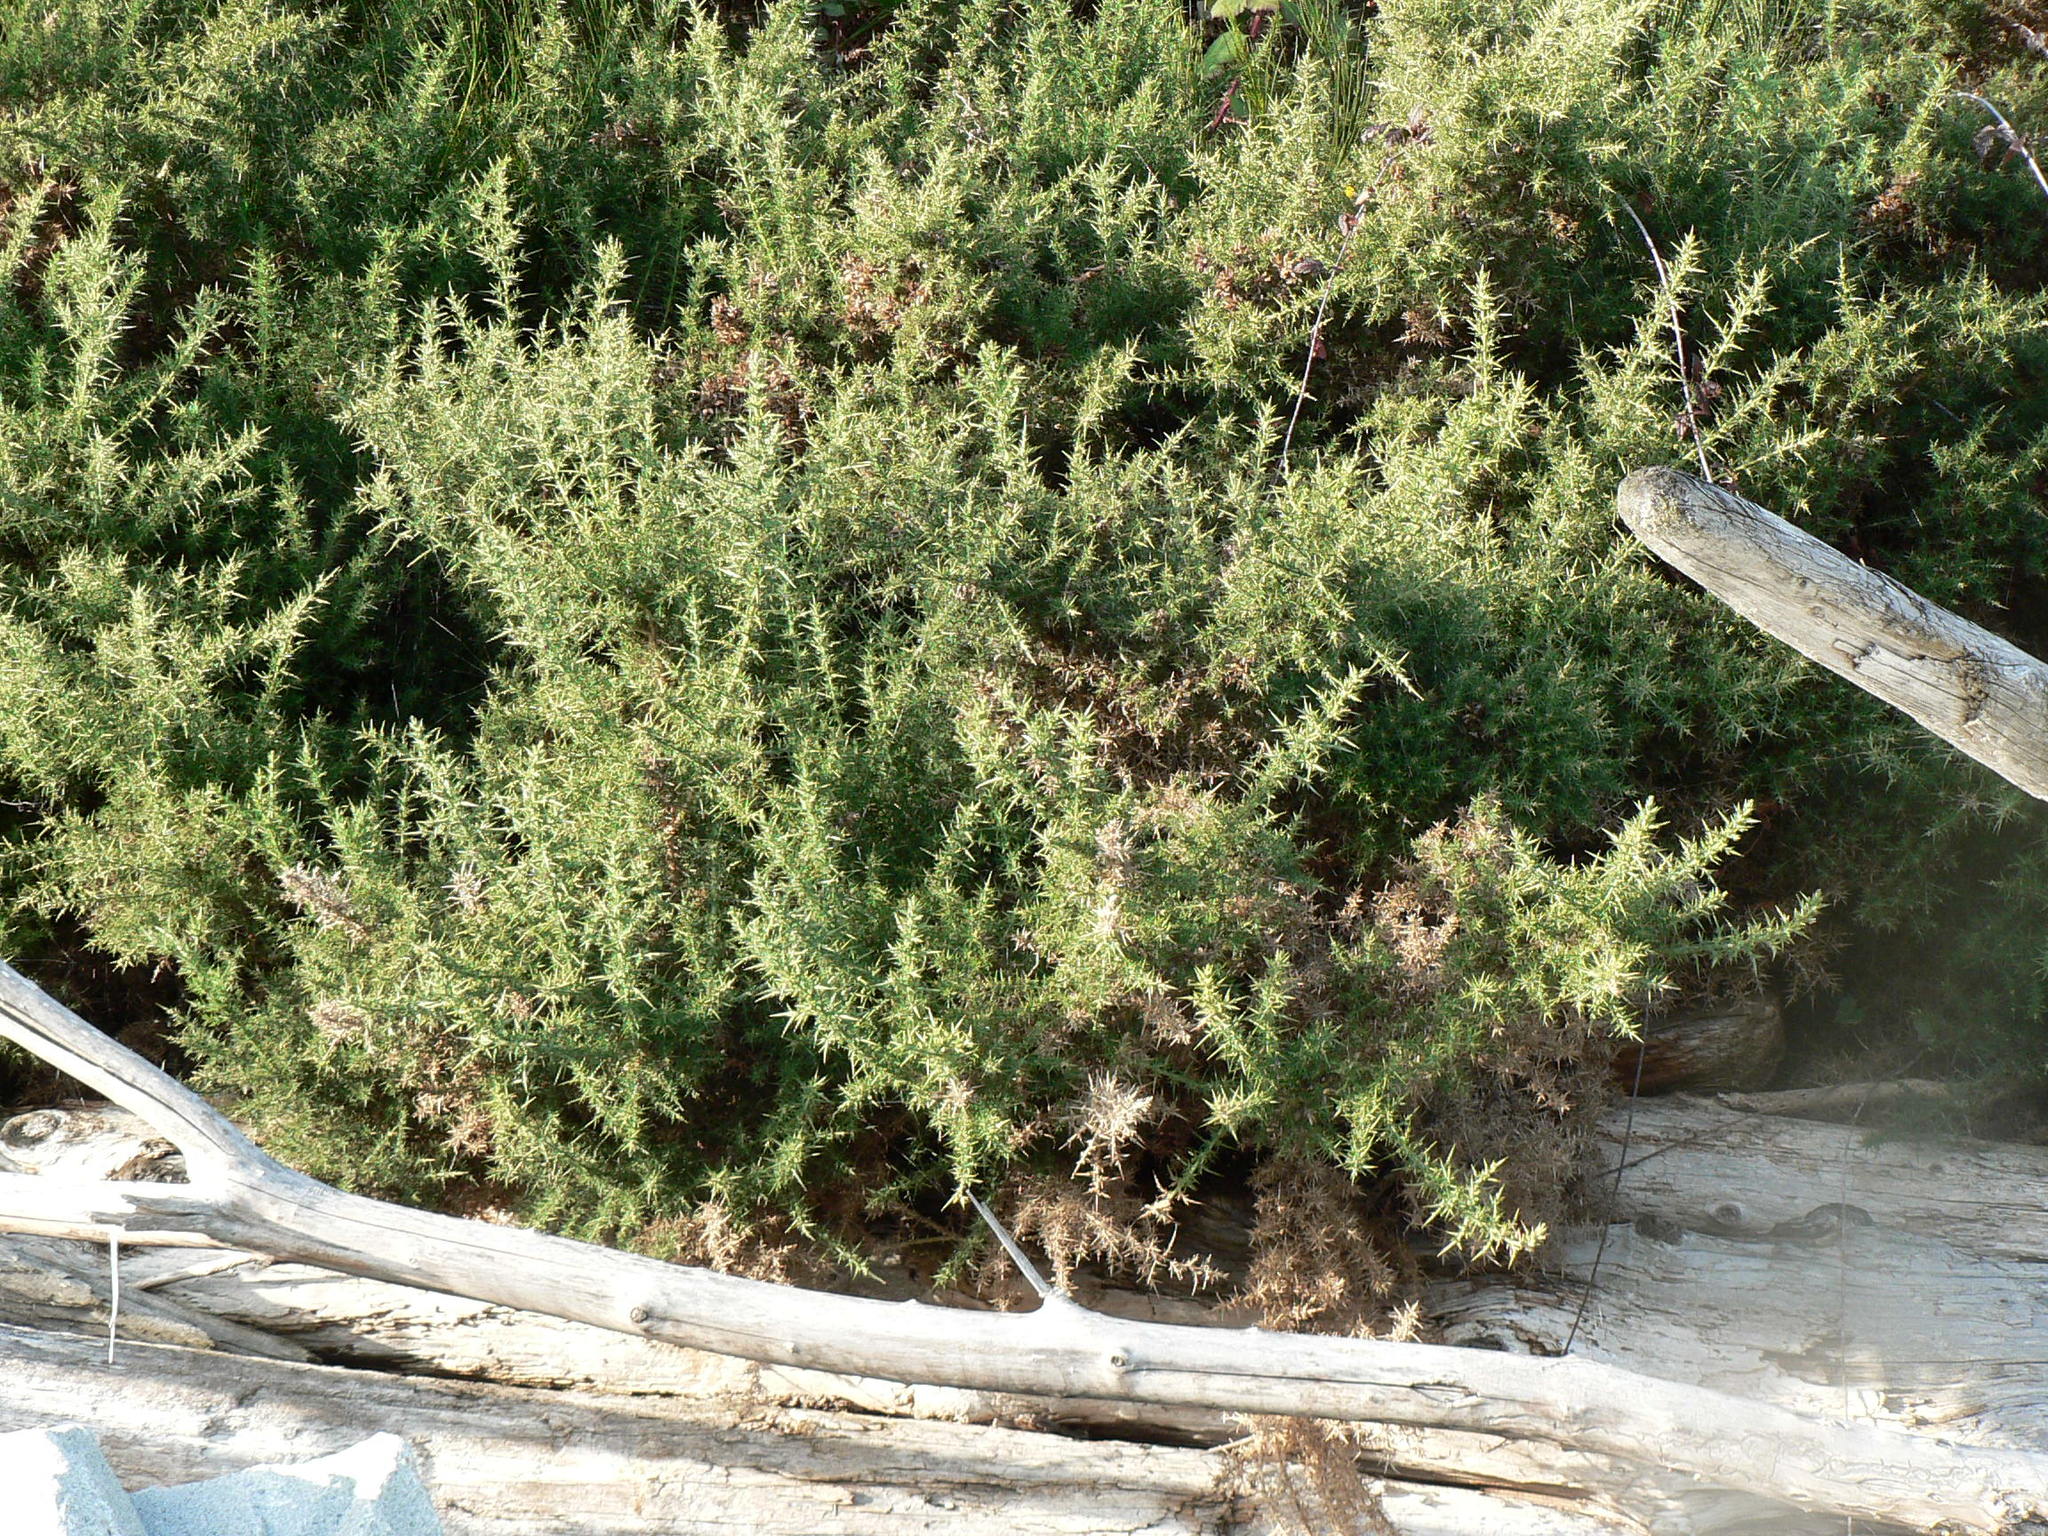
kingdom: Plantae
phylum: Tracheophyta
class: Magnoliopsida
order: Fabales
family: Fabaceae
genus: Ulex
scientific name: Ulex europaeus
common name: Common gorse
